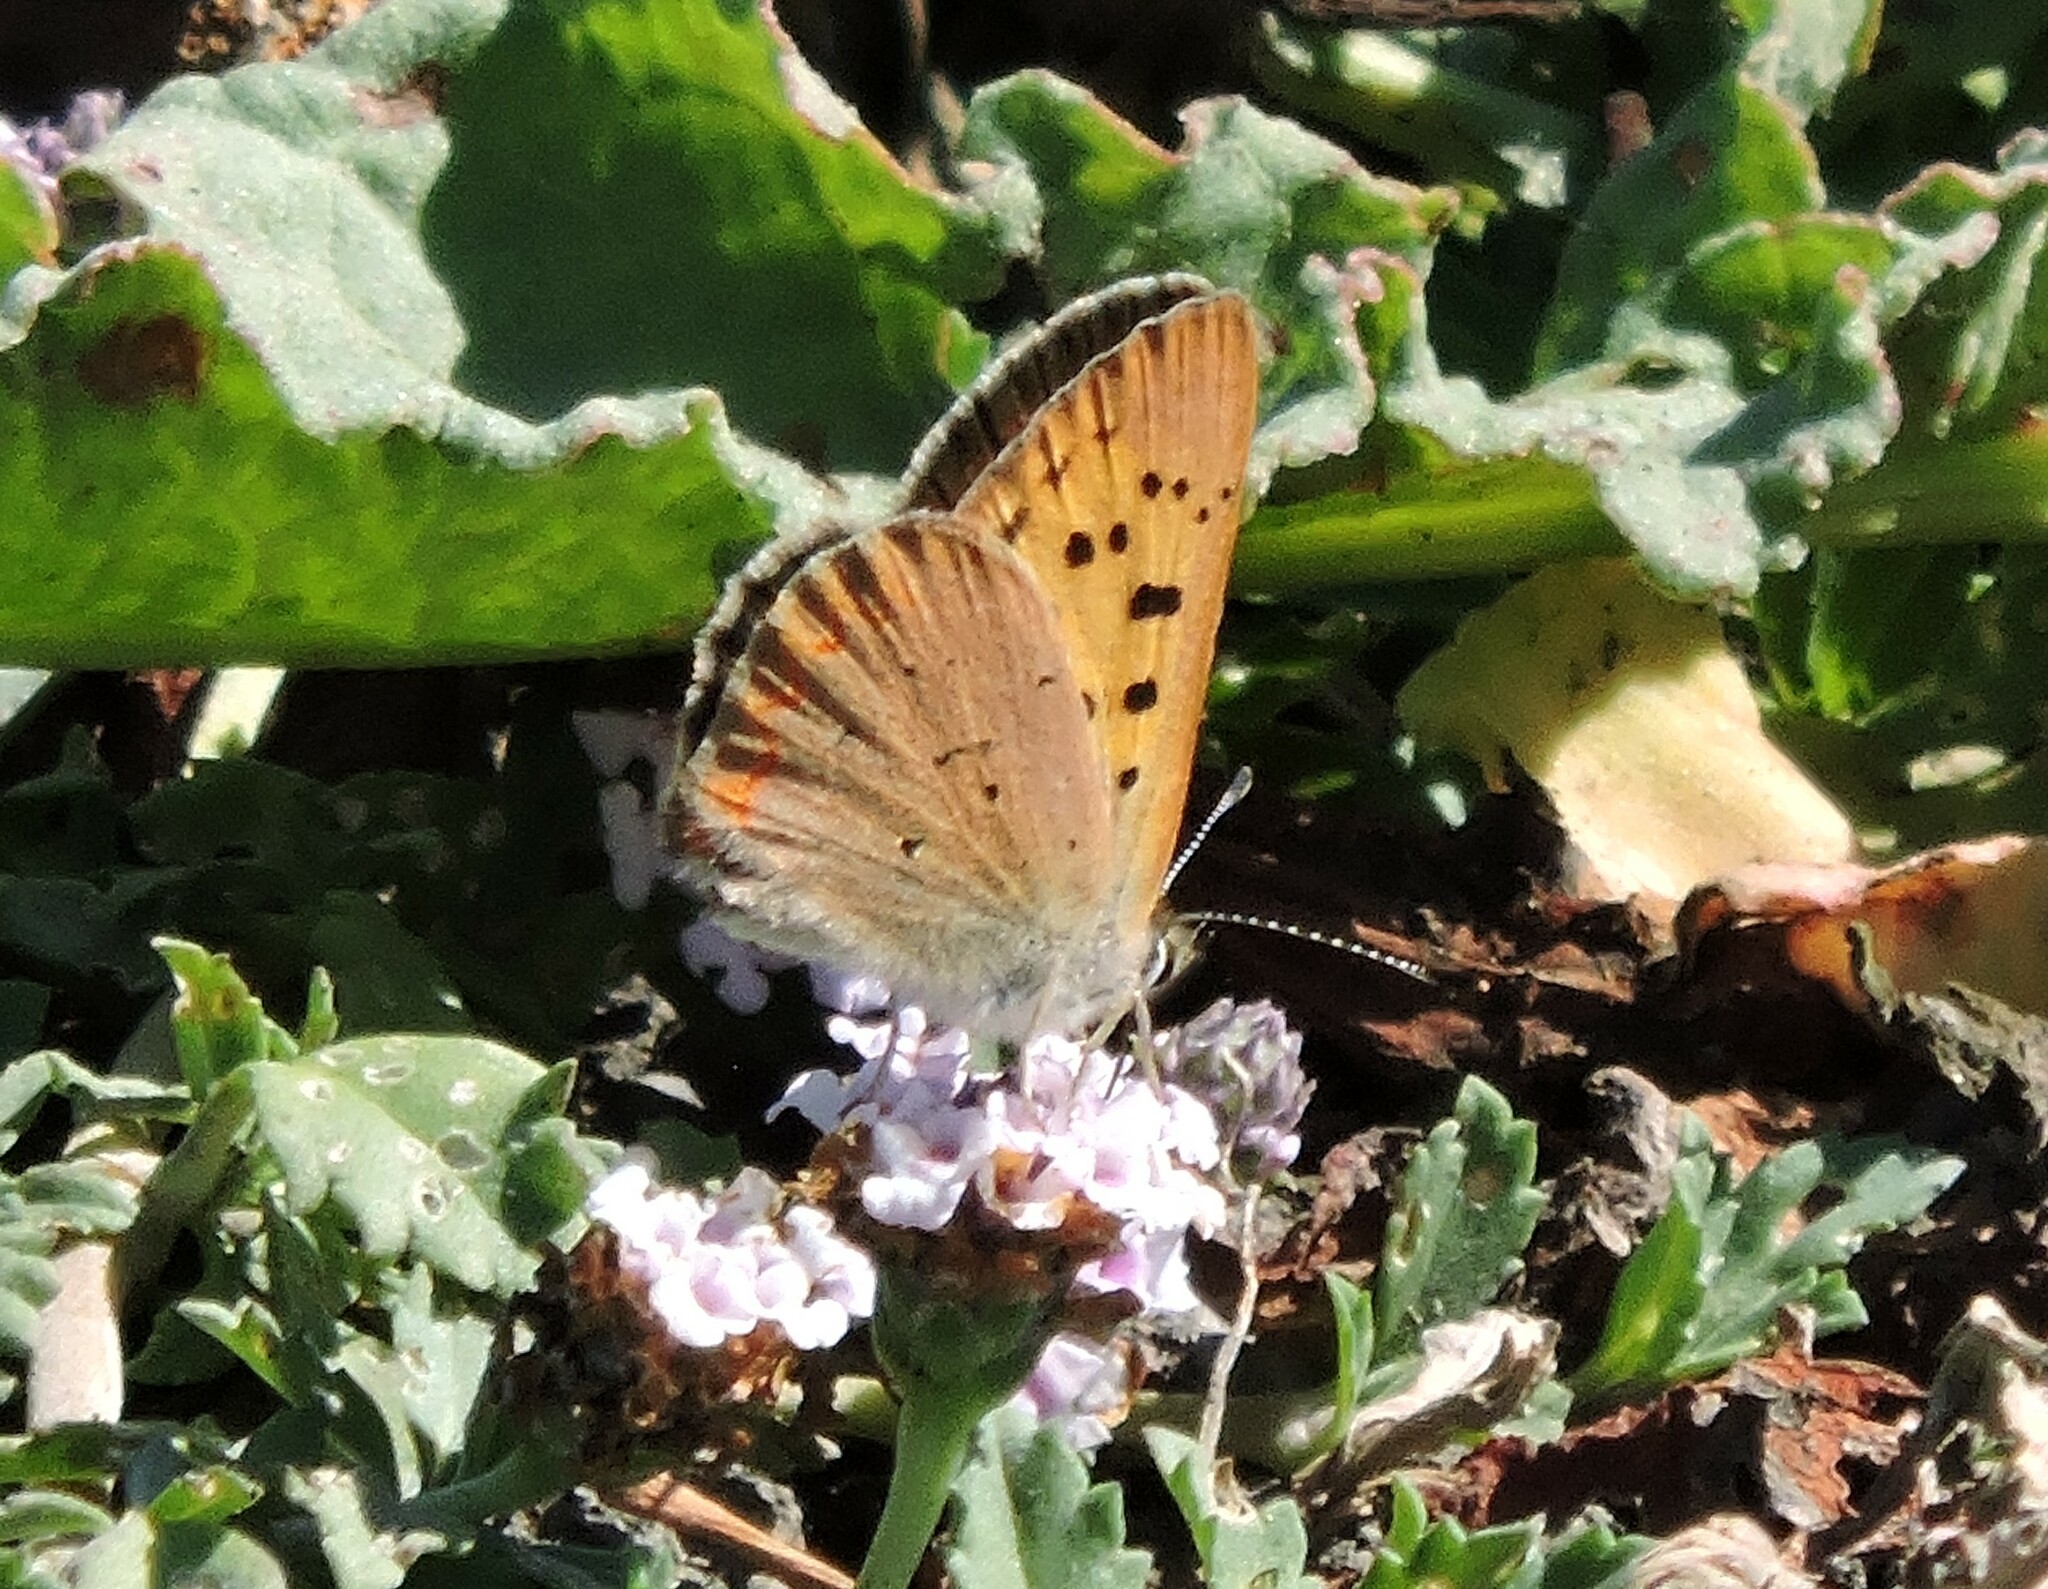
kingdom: Animalia
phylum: Arthropoda
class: Insecta
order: Lepidoptera
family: Lycaenidae
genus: Tharsalea
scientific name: Tharsalea helloides
